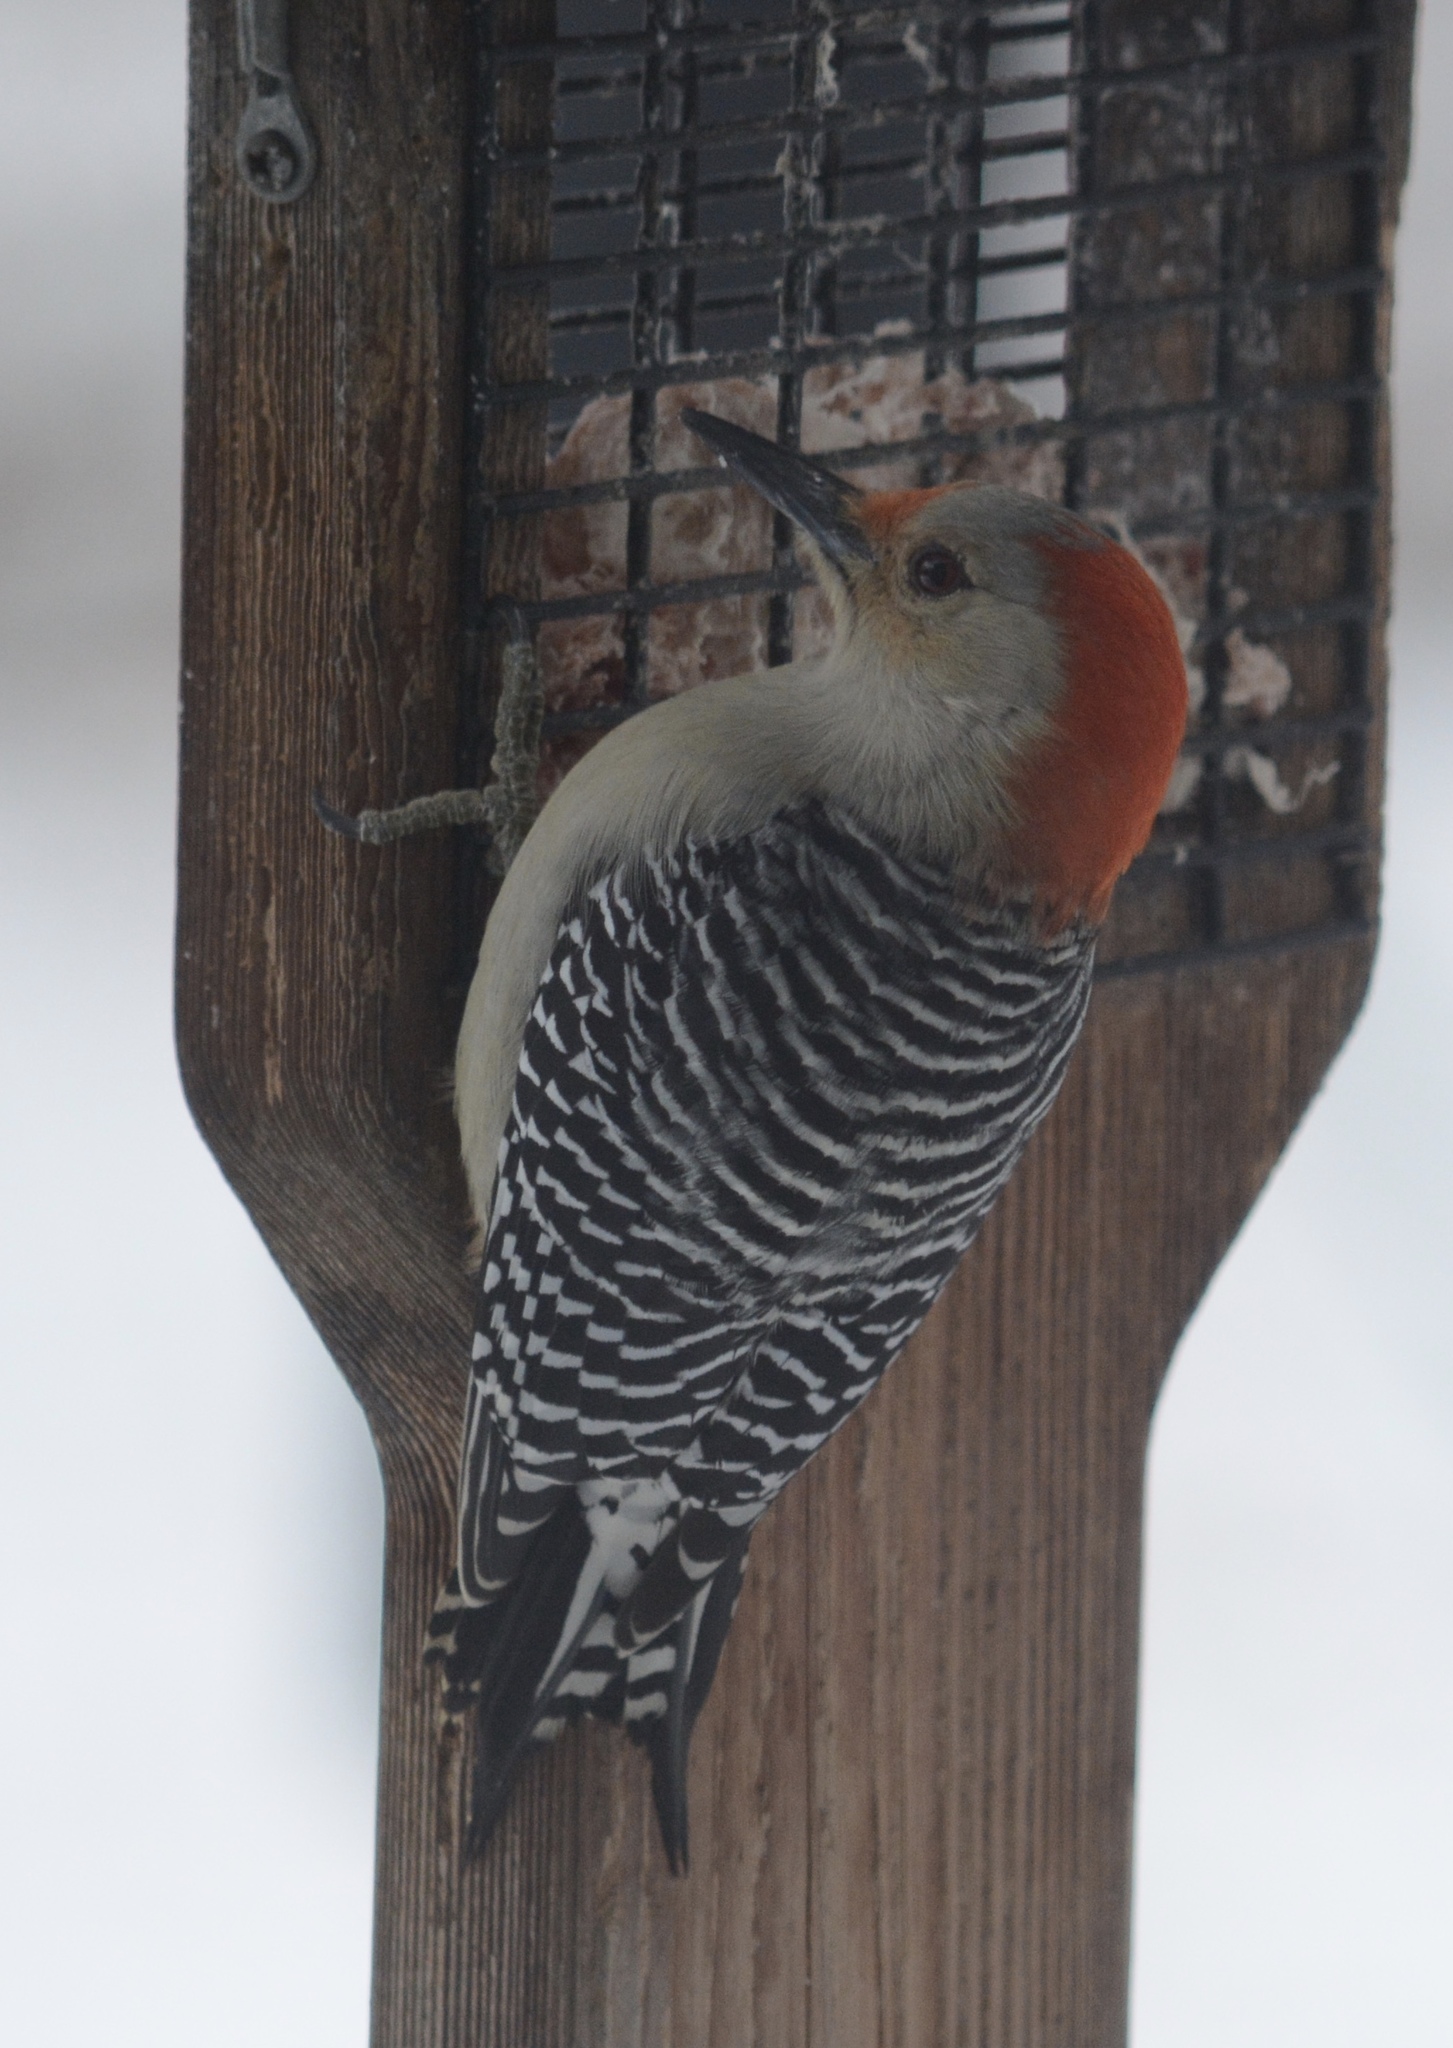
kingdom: Animalia
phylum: Chordata
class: Aves
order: Piciformes
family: Picidae
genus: Melanerpes
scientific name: Melanerpes carolinus
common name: Red-bellied woodpecker
